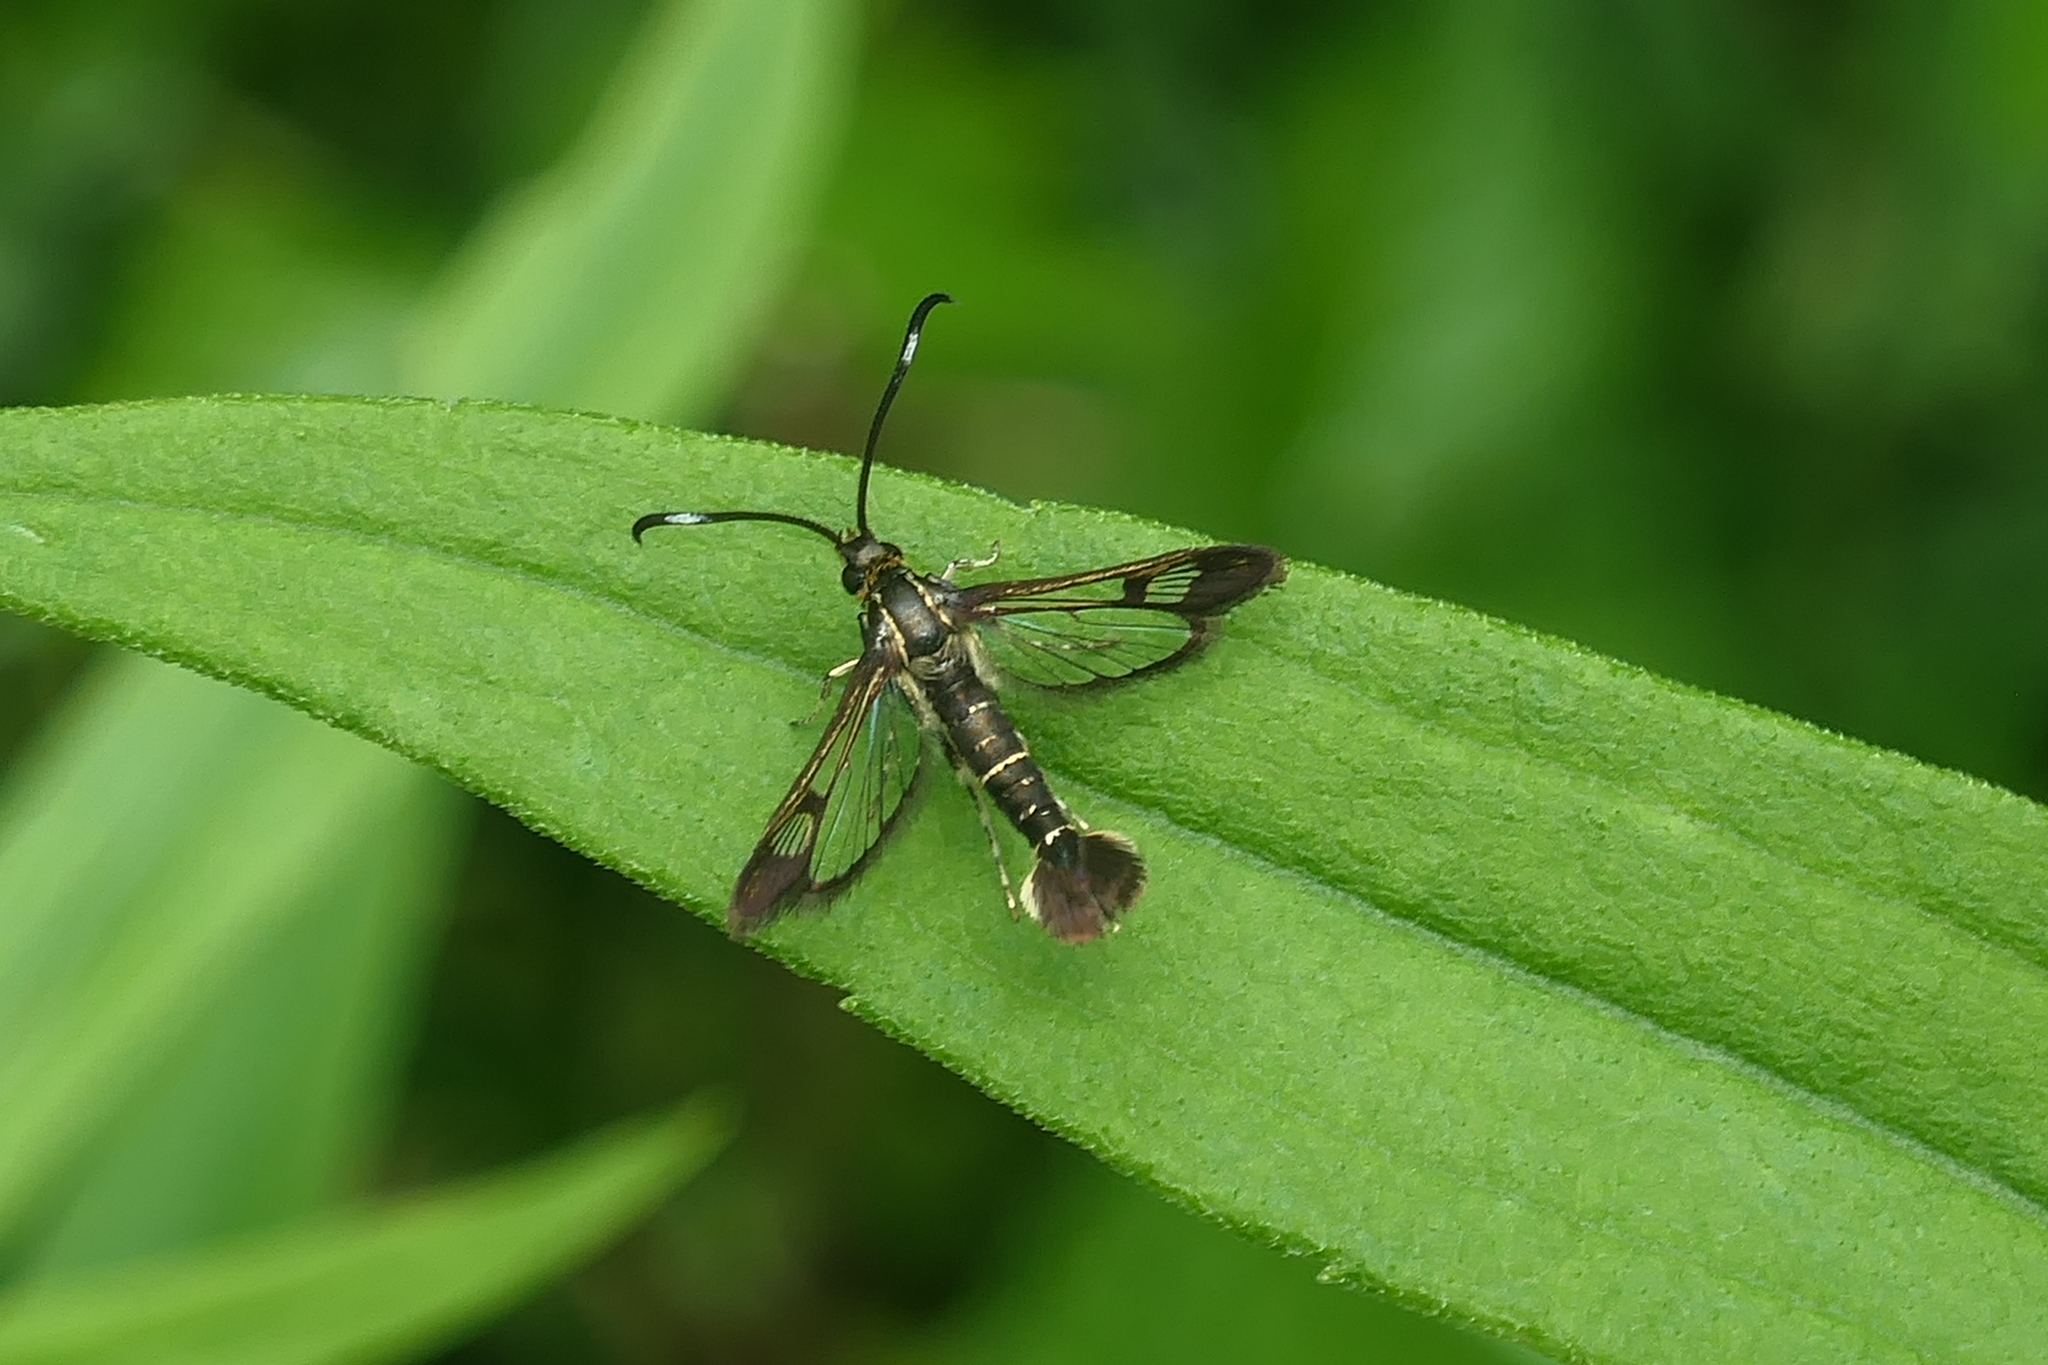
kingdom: Animalia
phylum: Arthropoda
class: Insecta
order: Lepidoptera
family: Sesiidae
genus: Carmenta
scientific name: Carmenta ithacae
